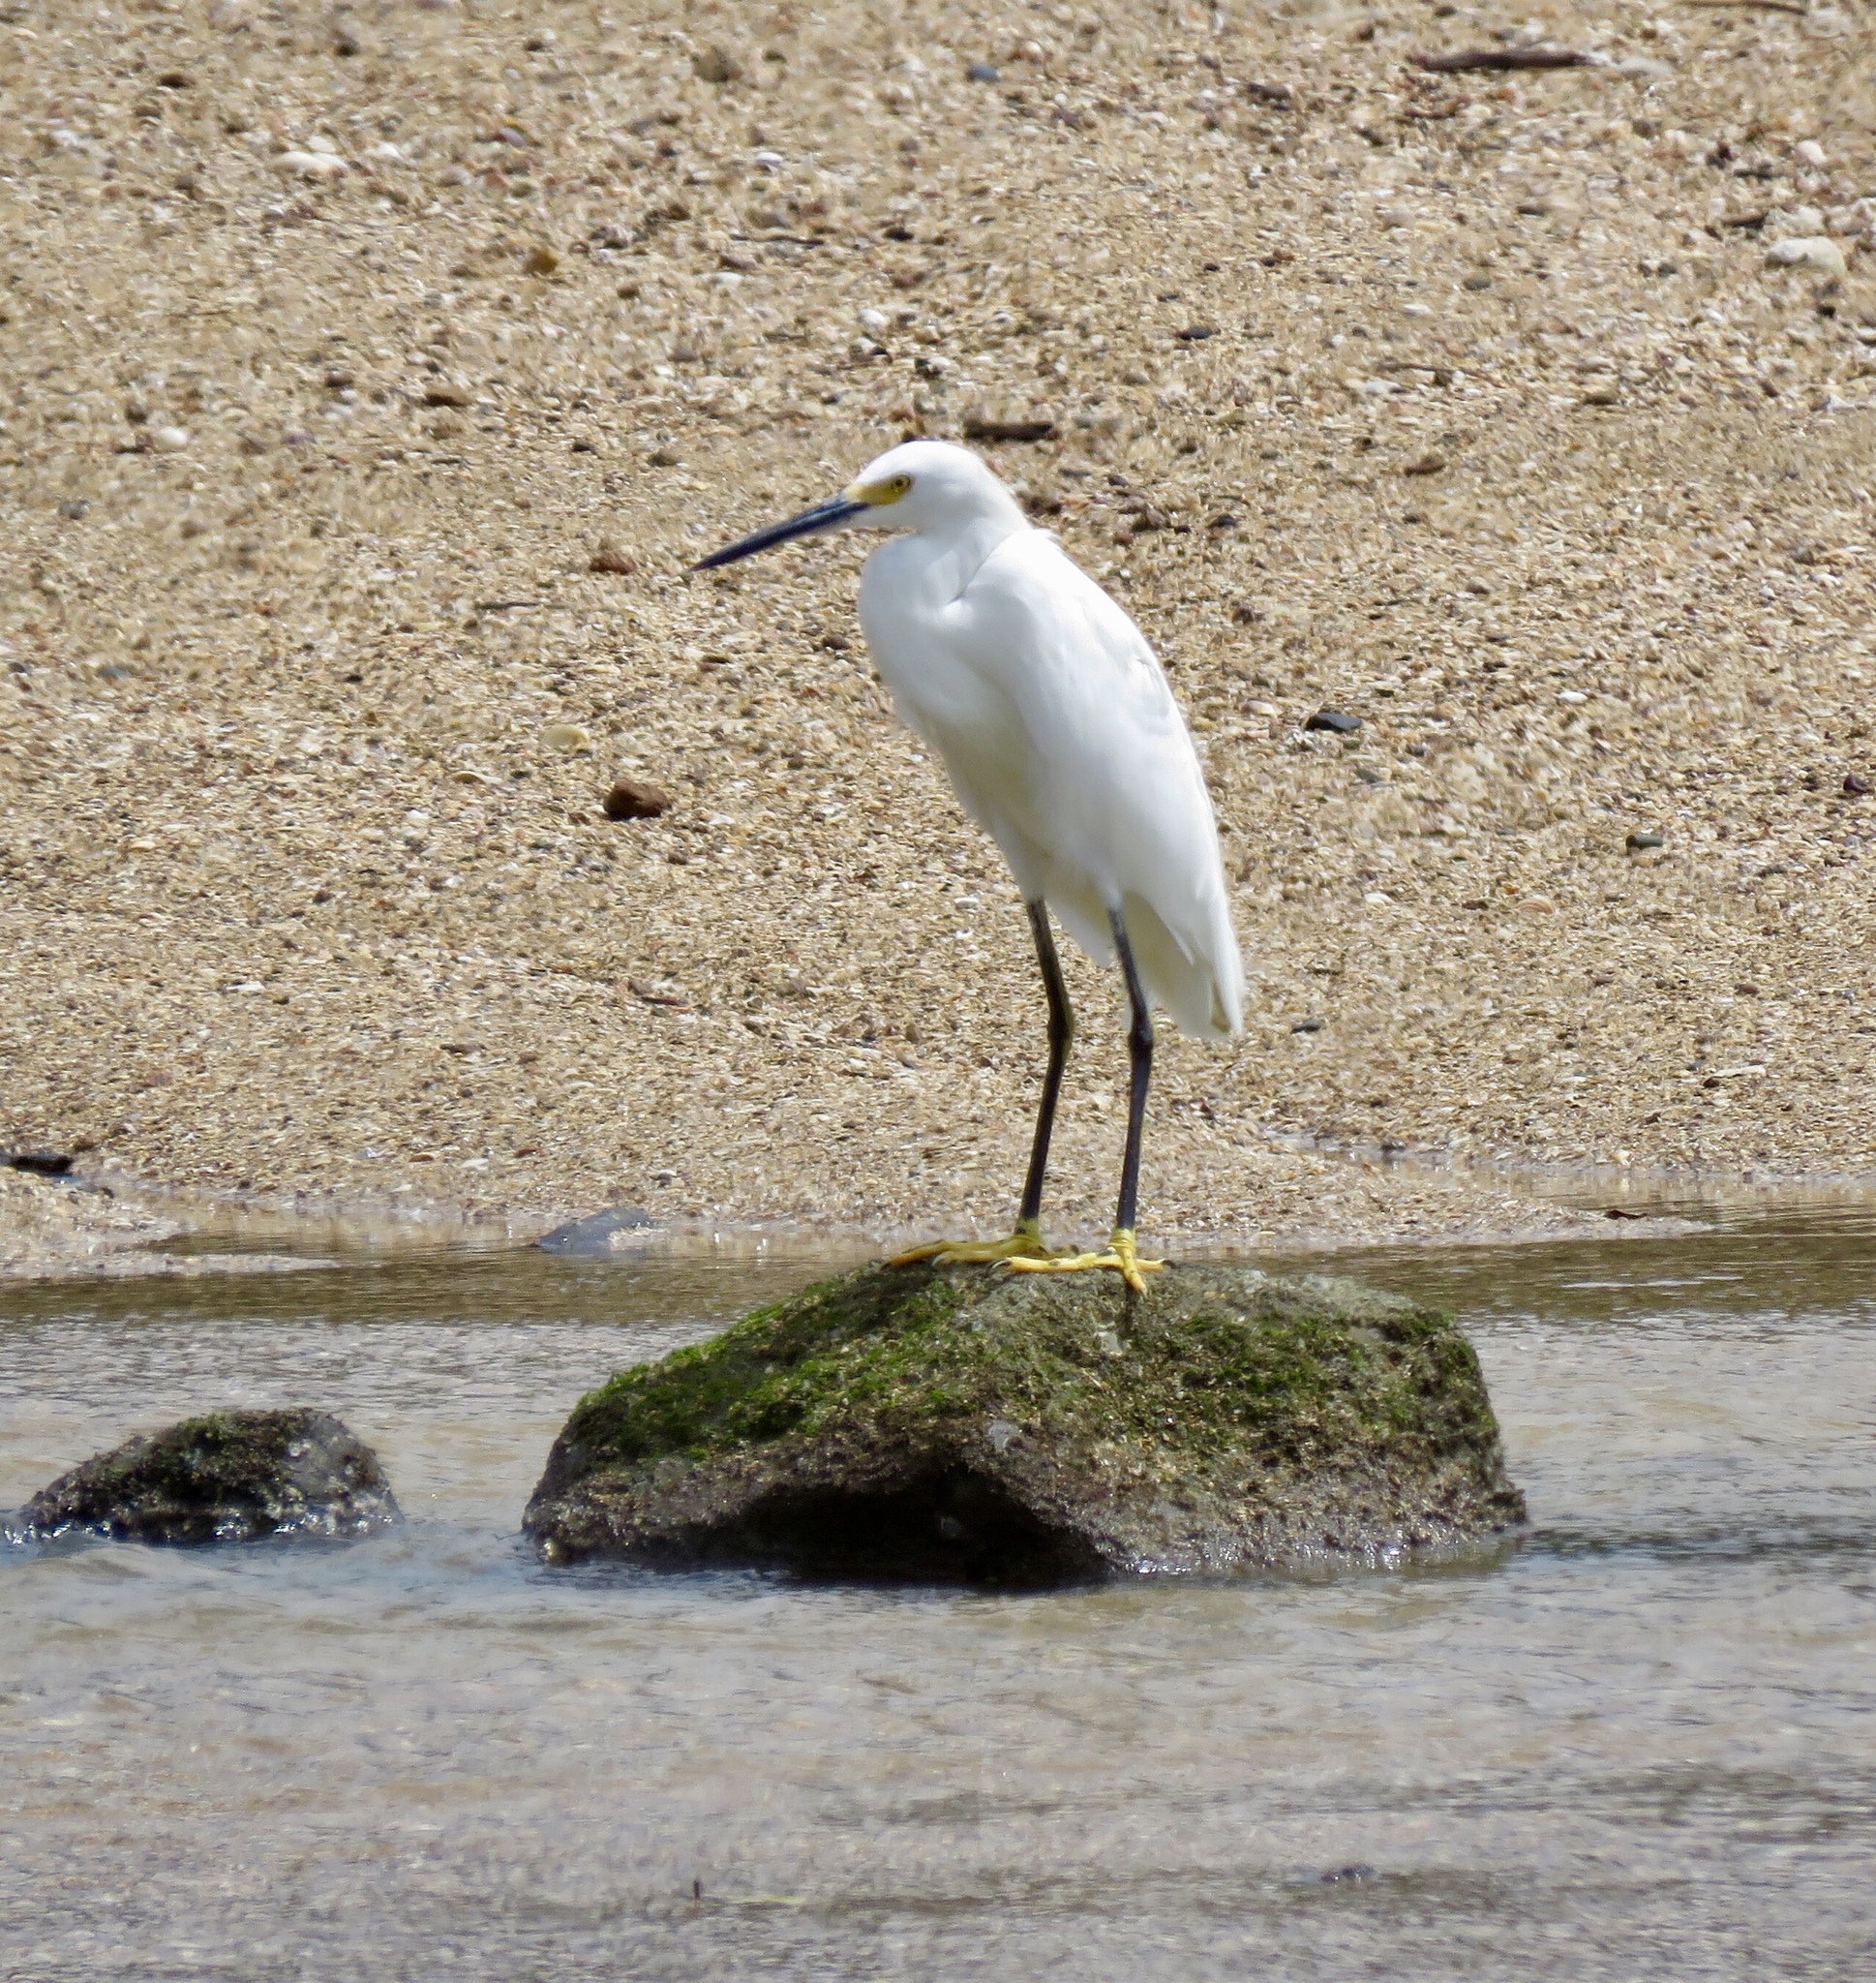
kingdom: Animalia
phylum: Chordata
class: Aves
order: Pelecaniformes
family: Ardeidae
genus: Egretta
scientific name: Egretta thula
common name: Snowy egret
